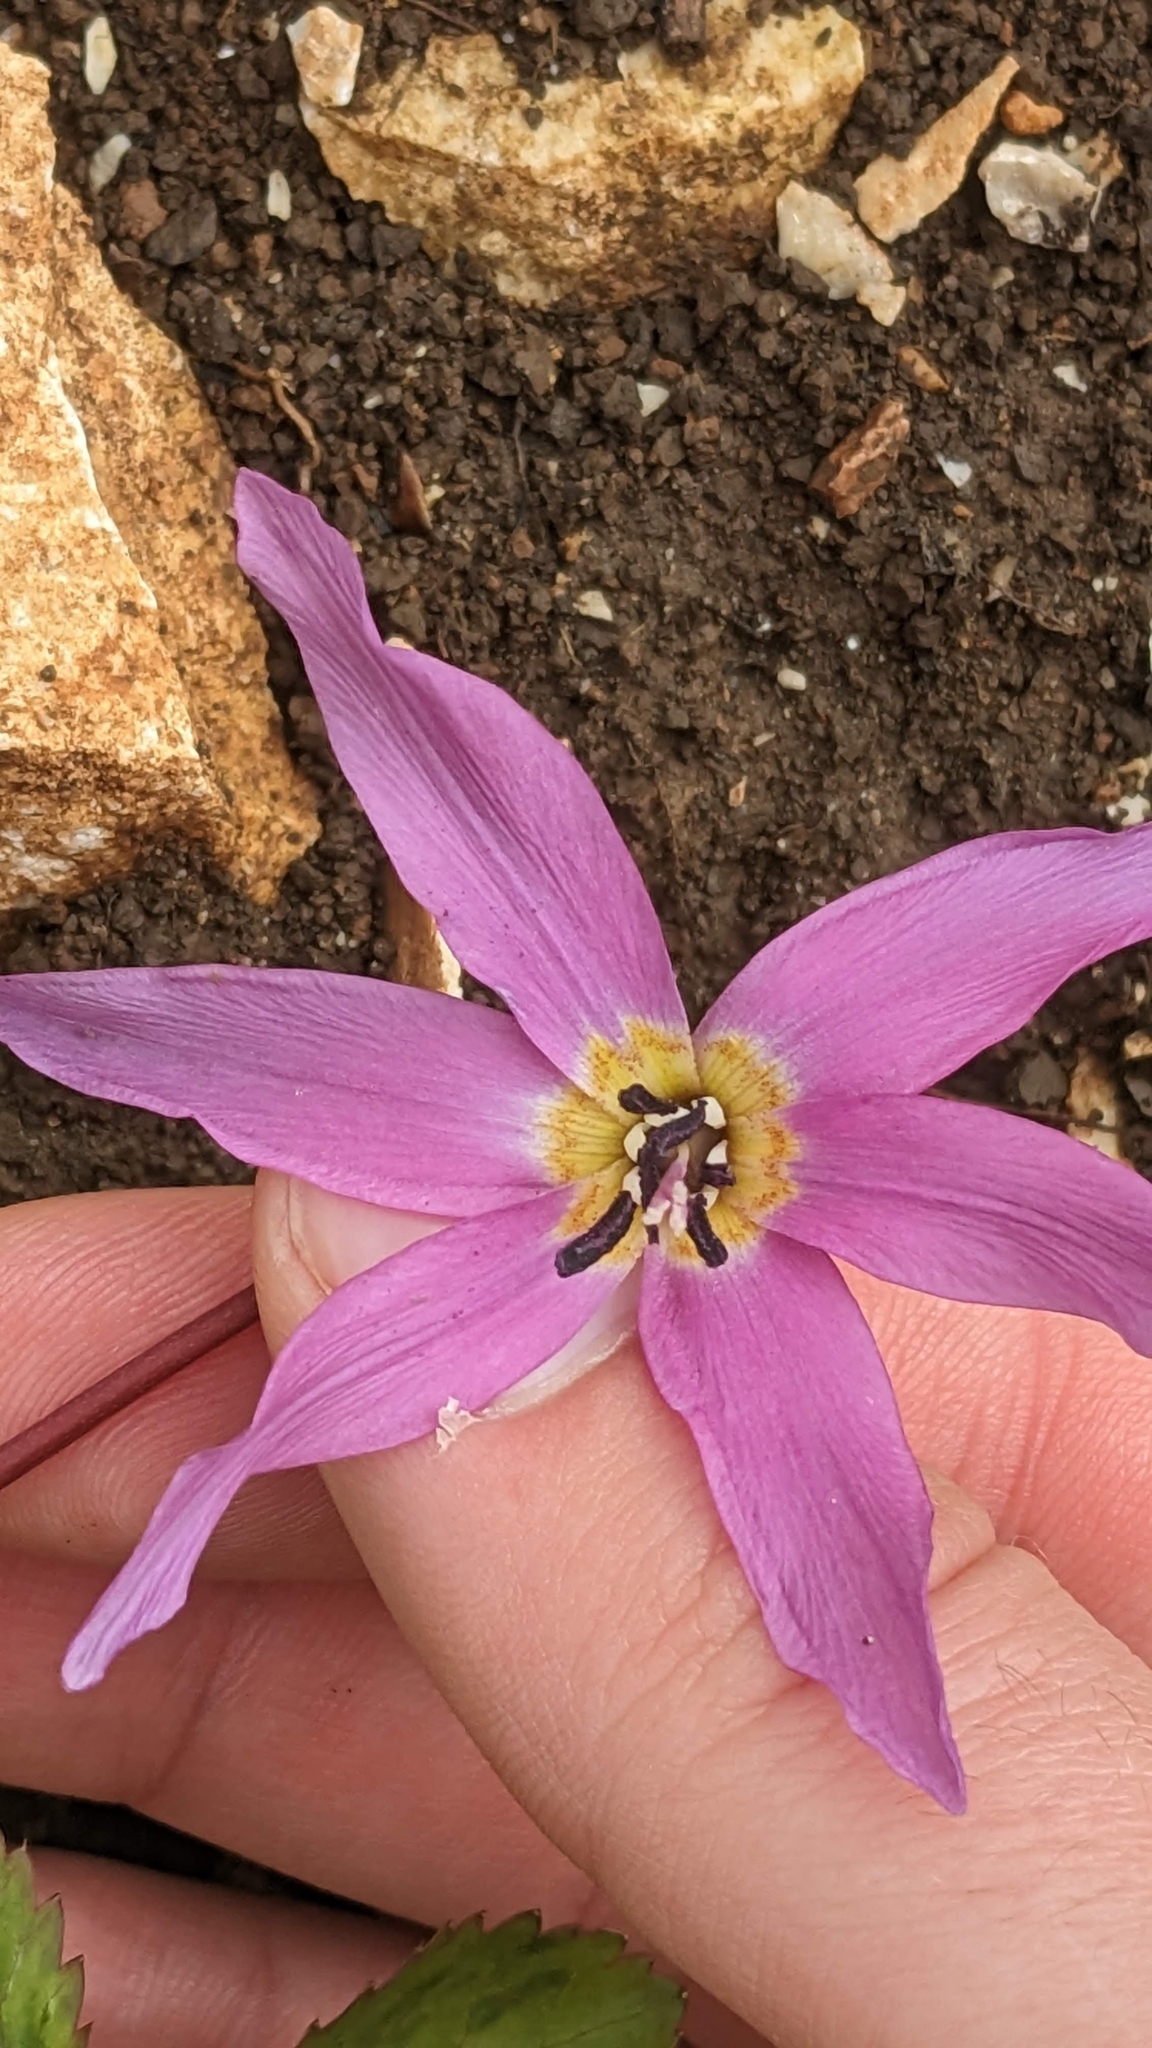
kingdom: Plantae
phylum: Tracheophyta
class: Liliopsida
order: Liliales
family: Liliaceae
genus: Erythronium
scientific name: Erythronium dens-canis
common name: Dog's-tooth-violet
